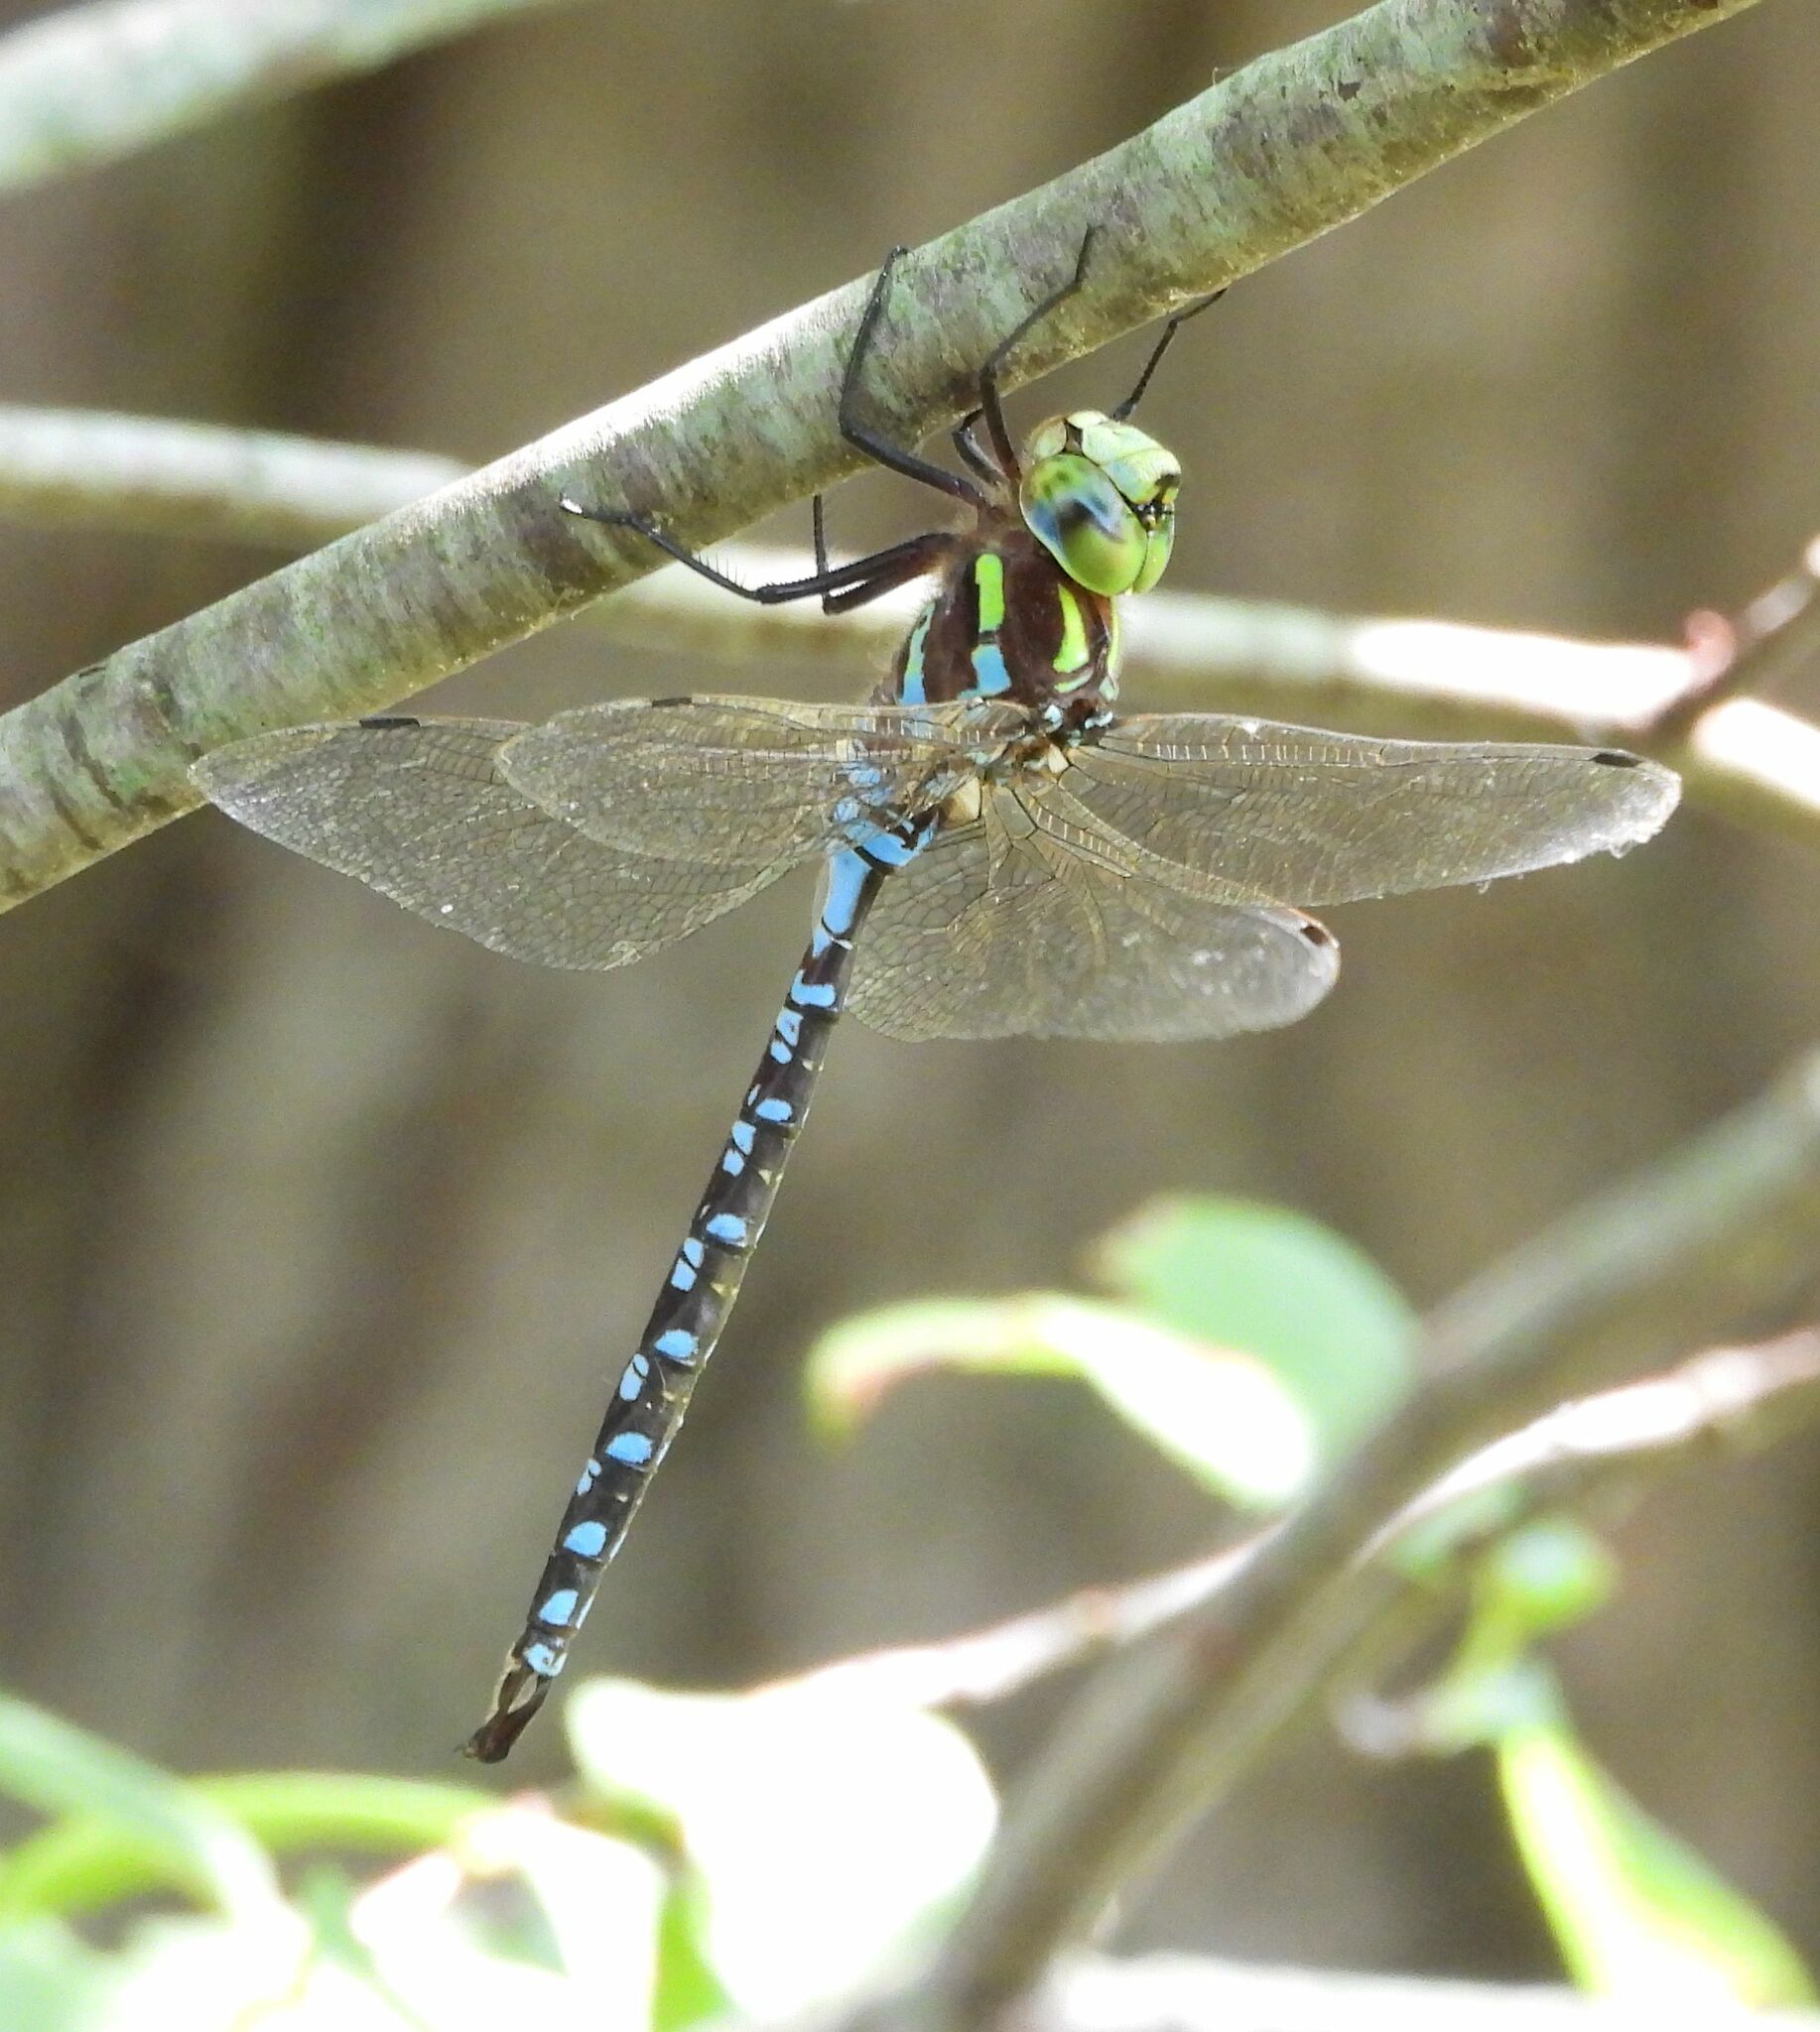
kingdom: Animalia
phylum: Arthropoda
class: Insecta
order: Odonata
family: Aeshnidae
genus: Aeshna
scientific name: Aeshna constricta
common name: Lance-tipped darner
